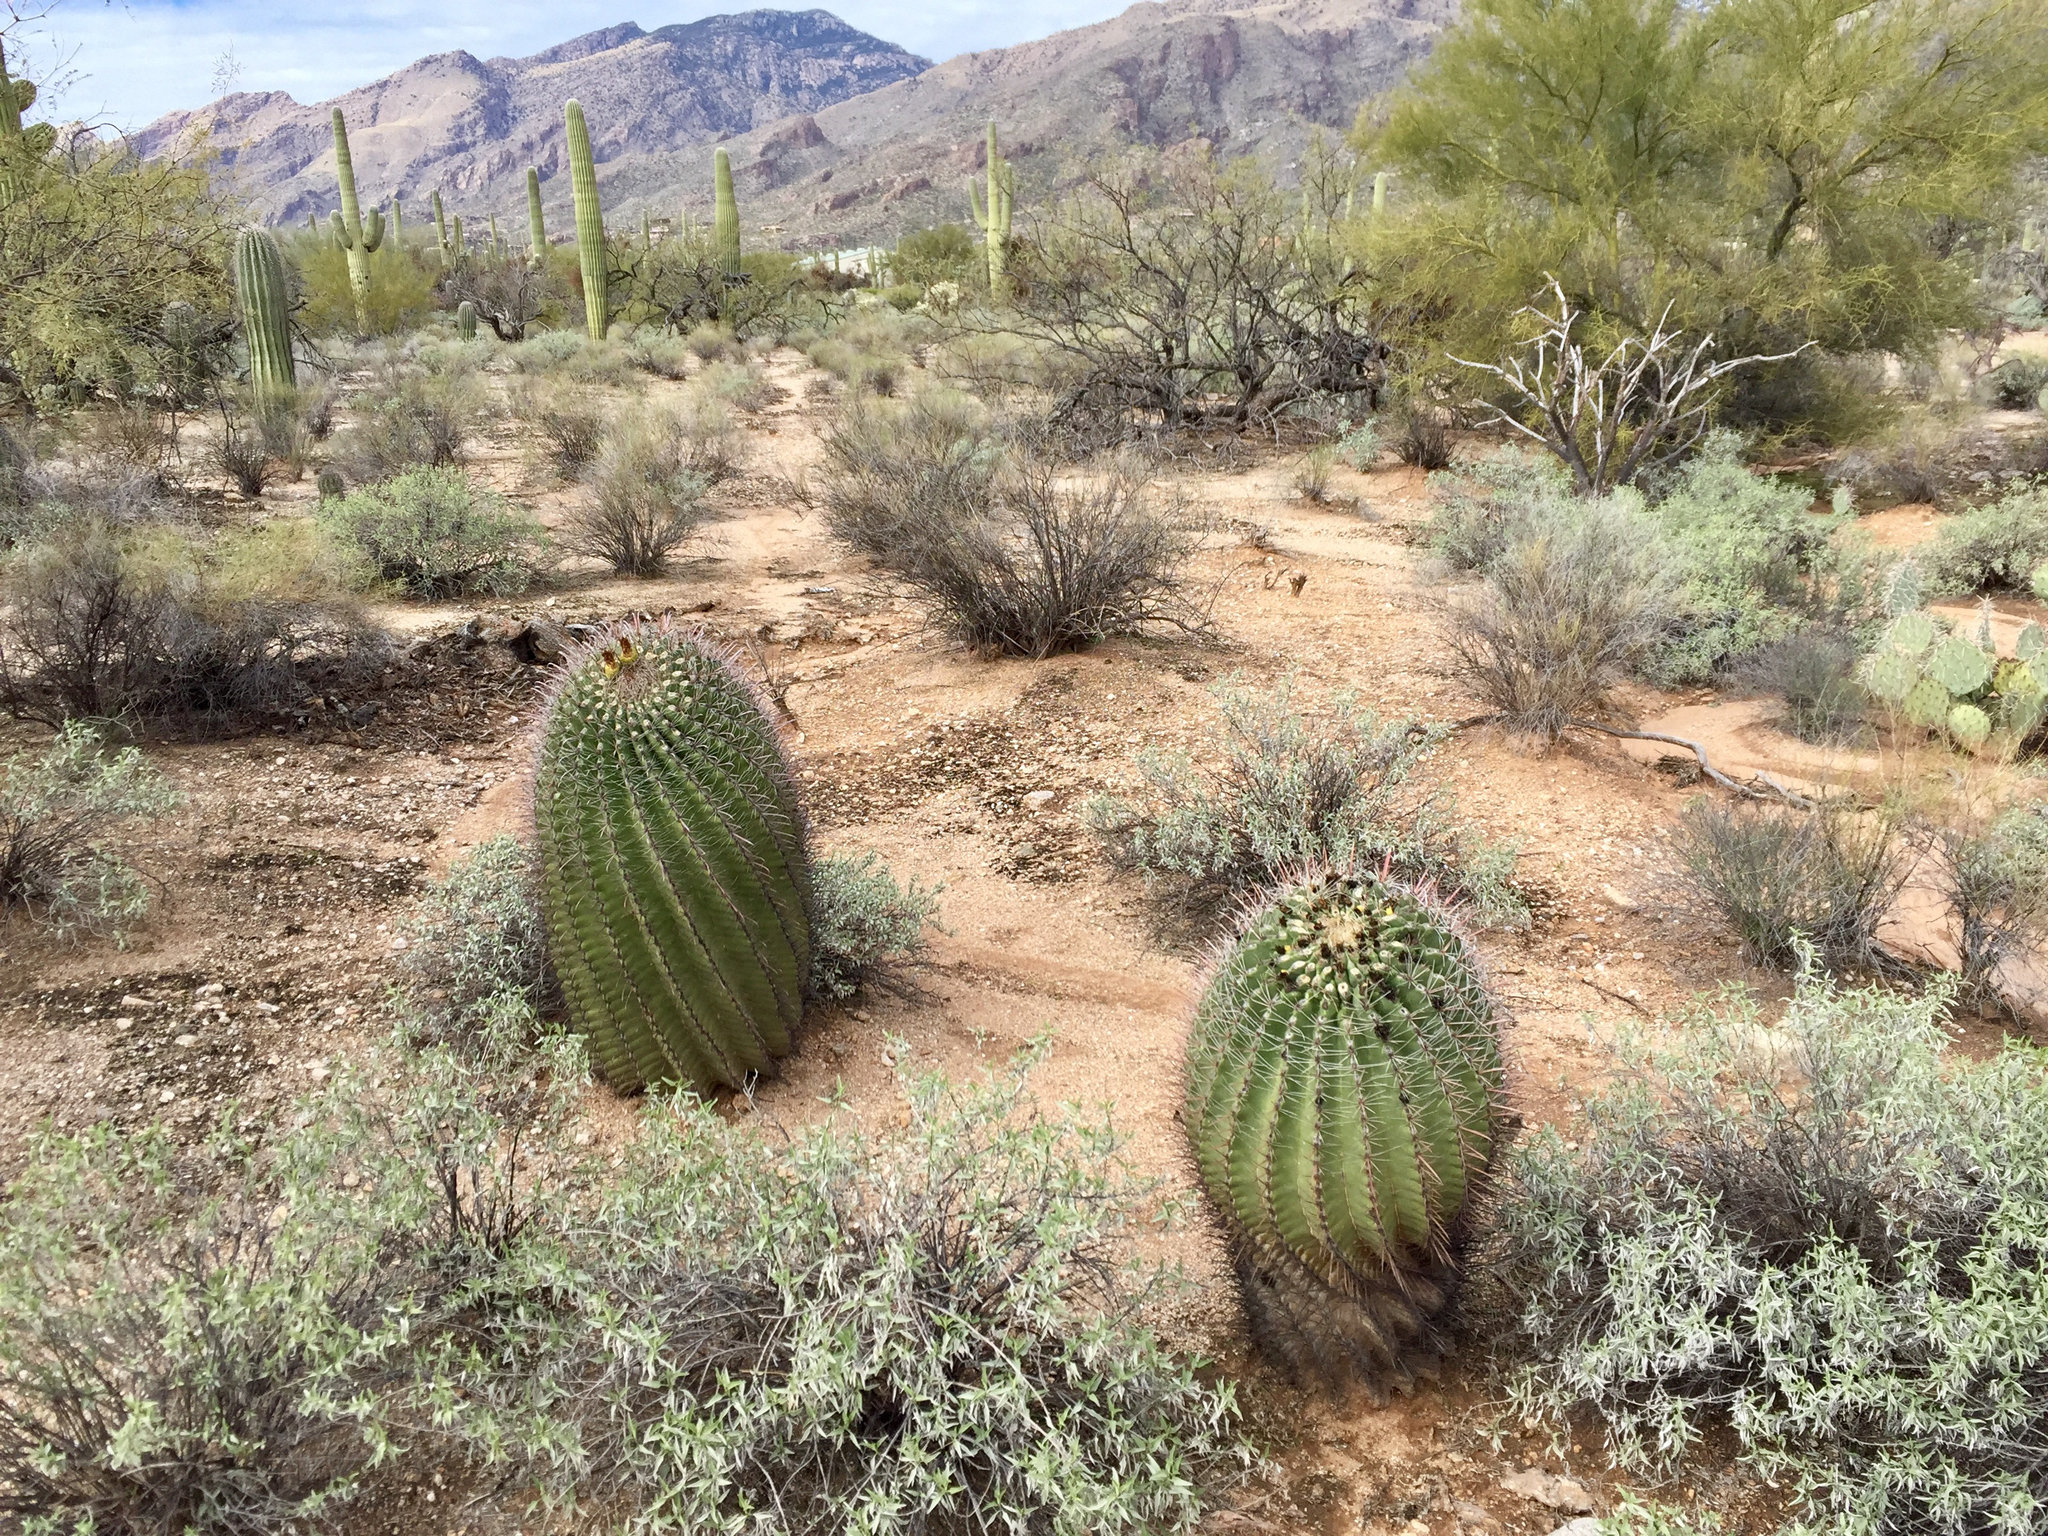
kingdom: Plantae
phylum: Tracheophyta
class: Magnoliopsida
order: Caryophyllales
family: Cactaceae
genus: Ferocactus
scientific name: Ferocactus wislizeni
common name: Candy barrel cactus
